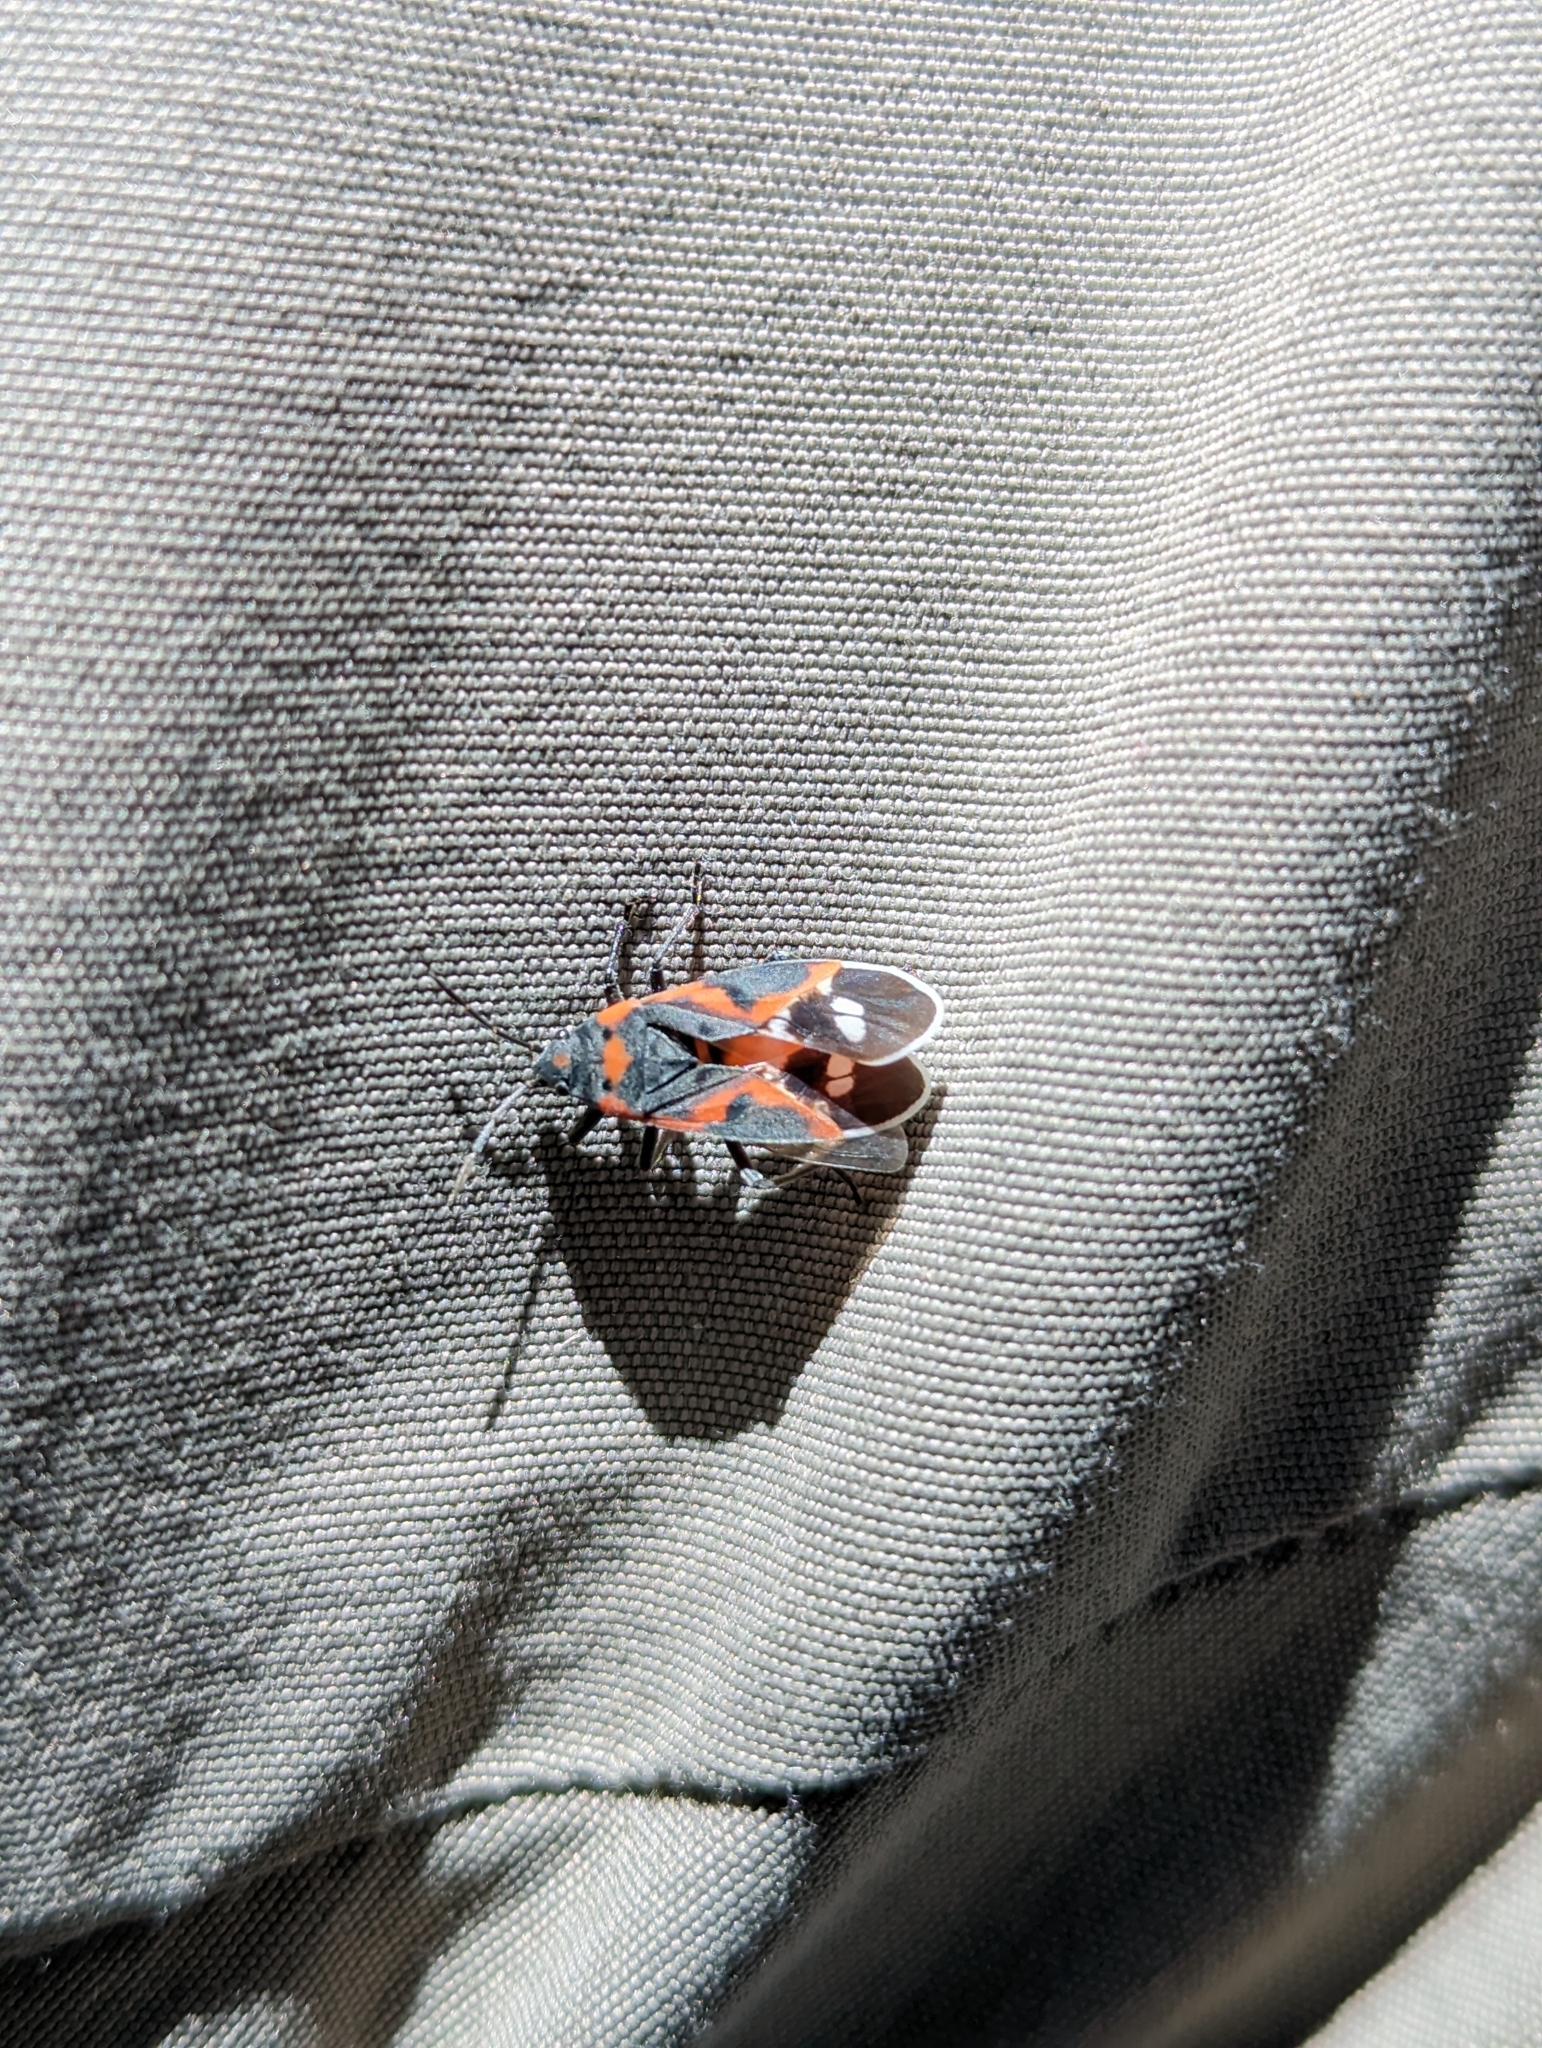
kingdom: Animalia
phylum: Arthropoda
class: Insecta
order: Hemiptera
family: Lygaeidae
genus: Lygaeus
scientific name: Lygaeus kalmii
